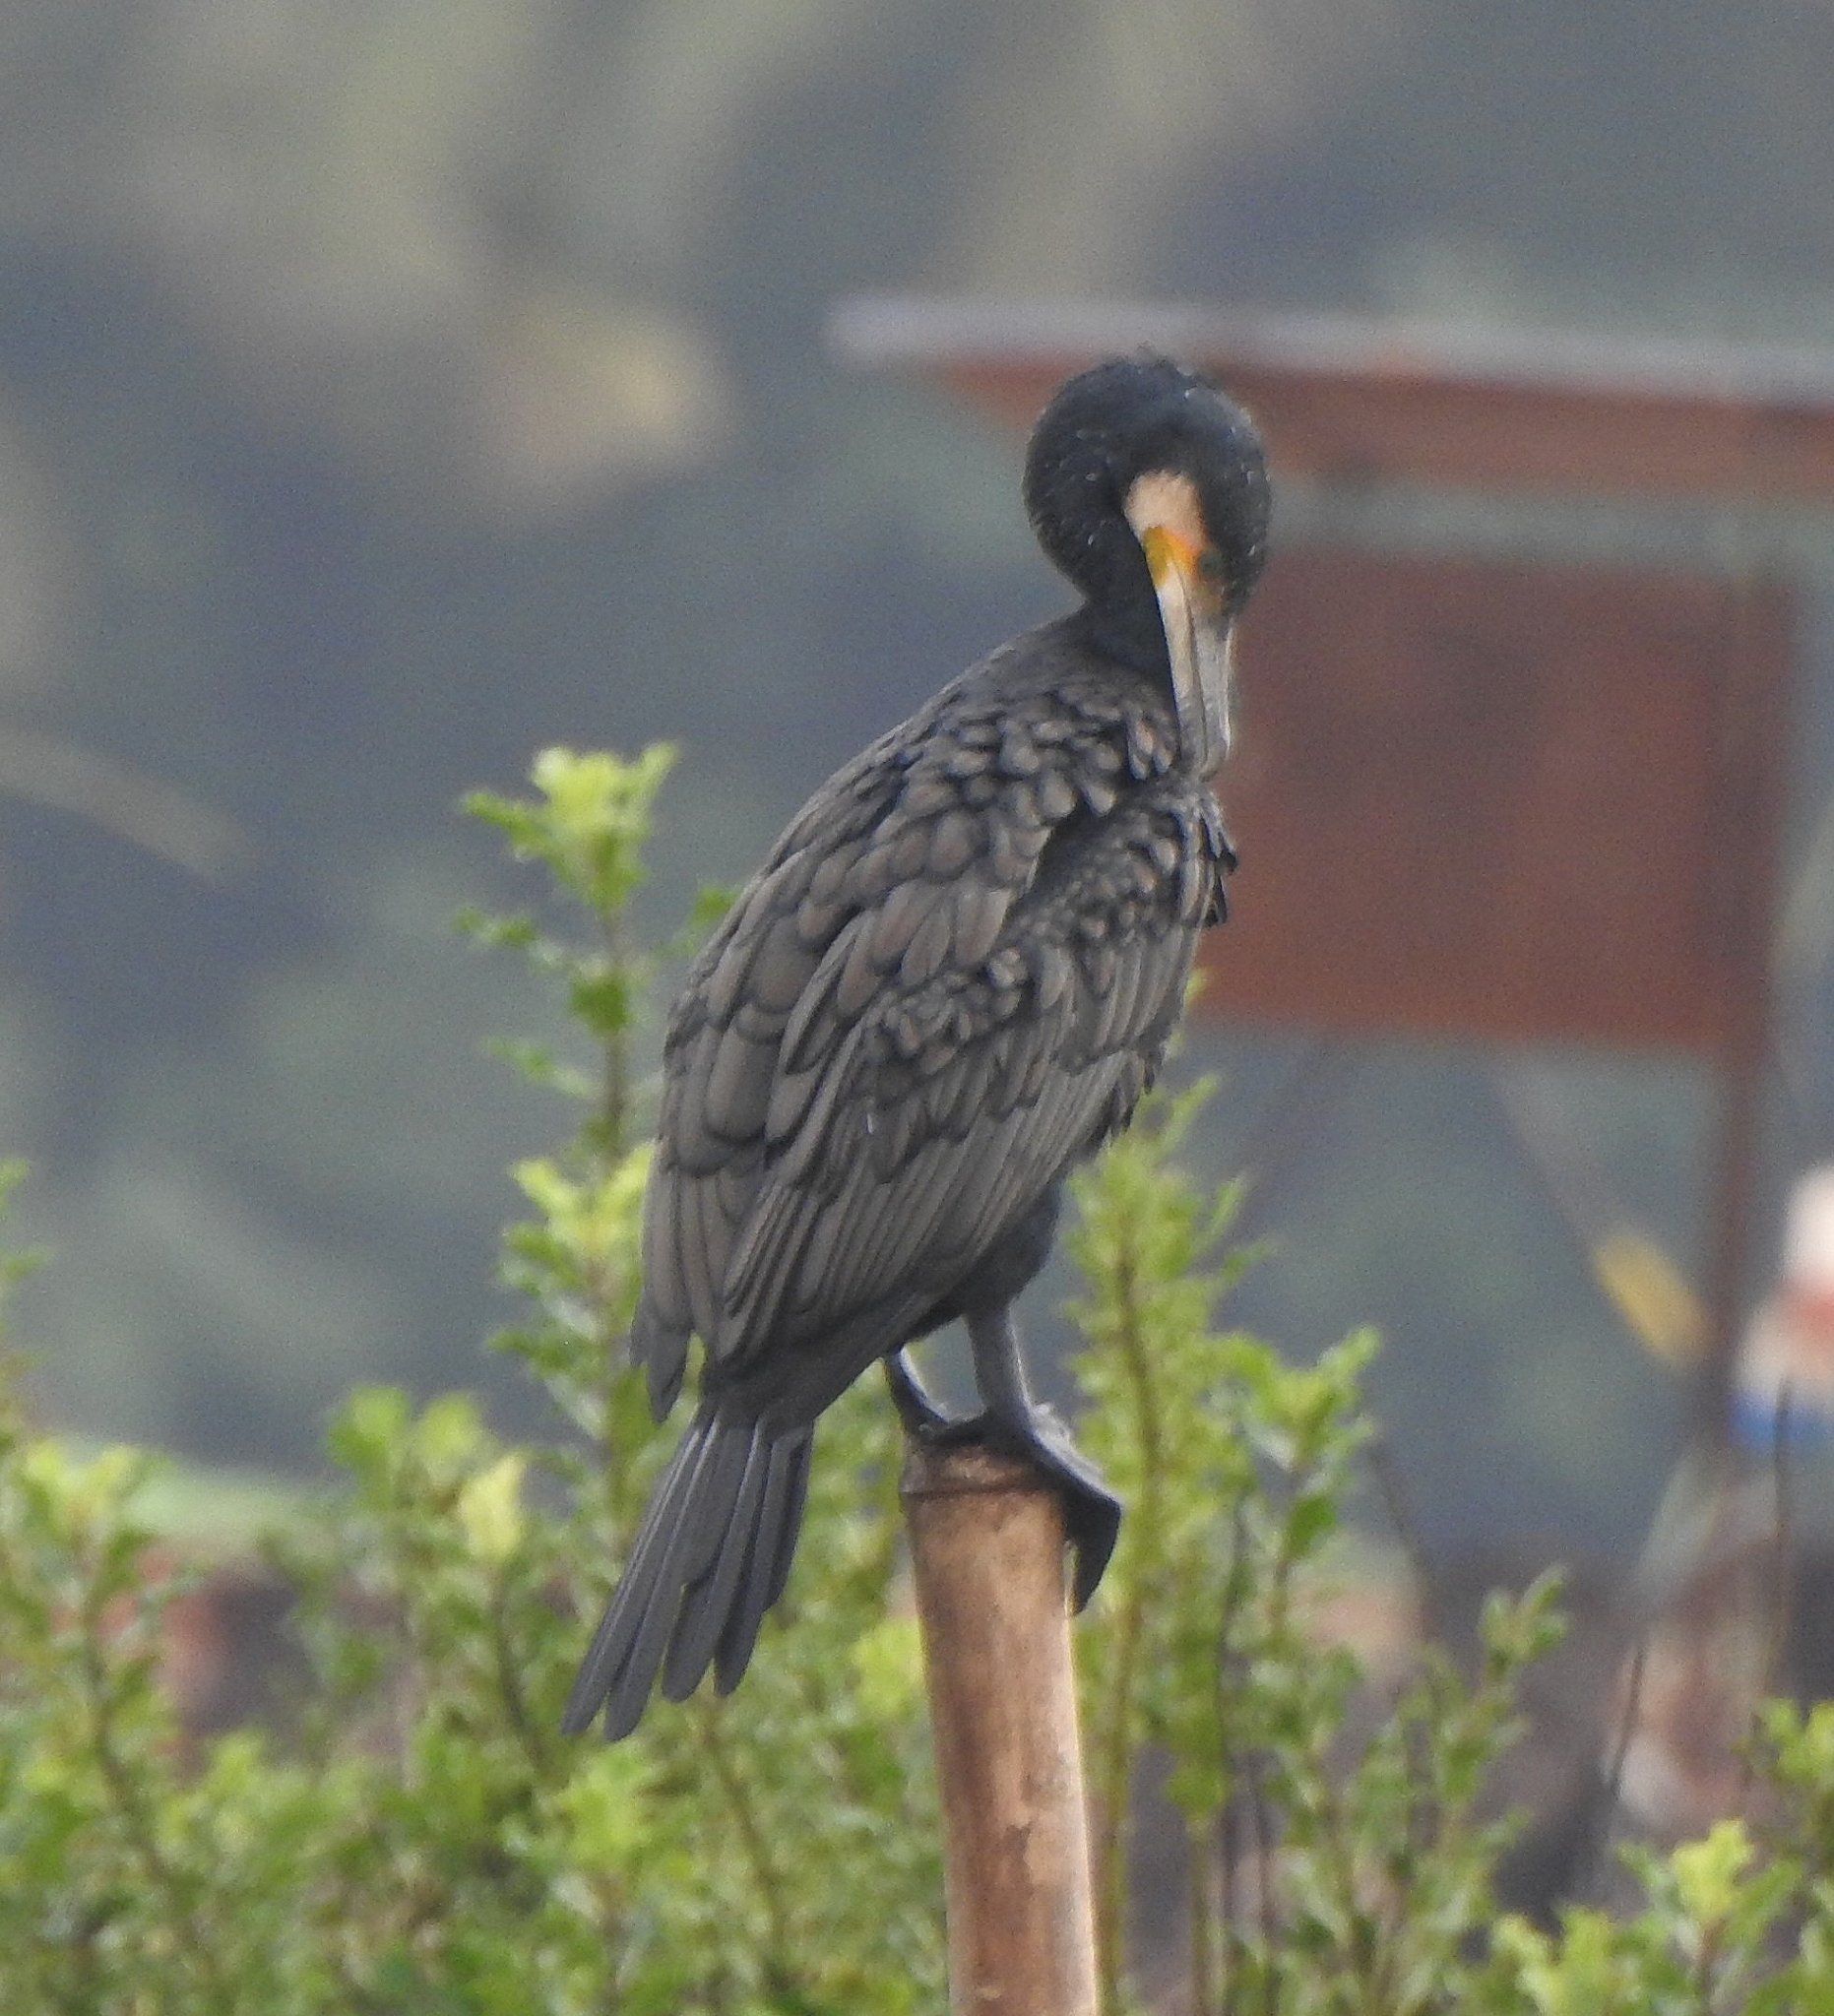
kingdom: Animalia
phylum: Chordata
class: Aves
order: Suliformes
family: Phalacrocoracidae
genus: Phalacrocorax
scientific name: Phalacrocorax carbo
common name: Great cormorant
